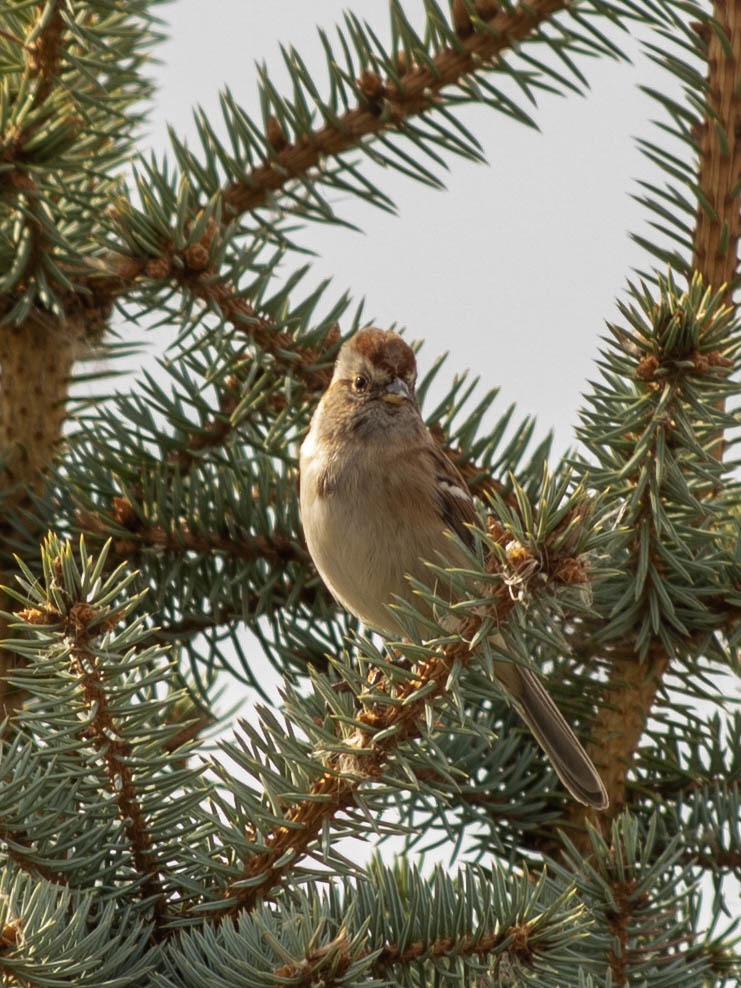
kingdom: Animalia
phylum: Chordata
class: Aves
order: Passeriformes
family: Passerellidae
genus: Spizelloides
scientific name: Spizelloides arborea
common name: American tree sparrow
